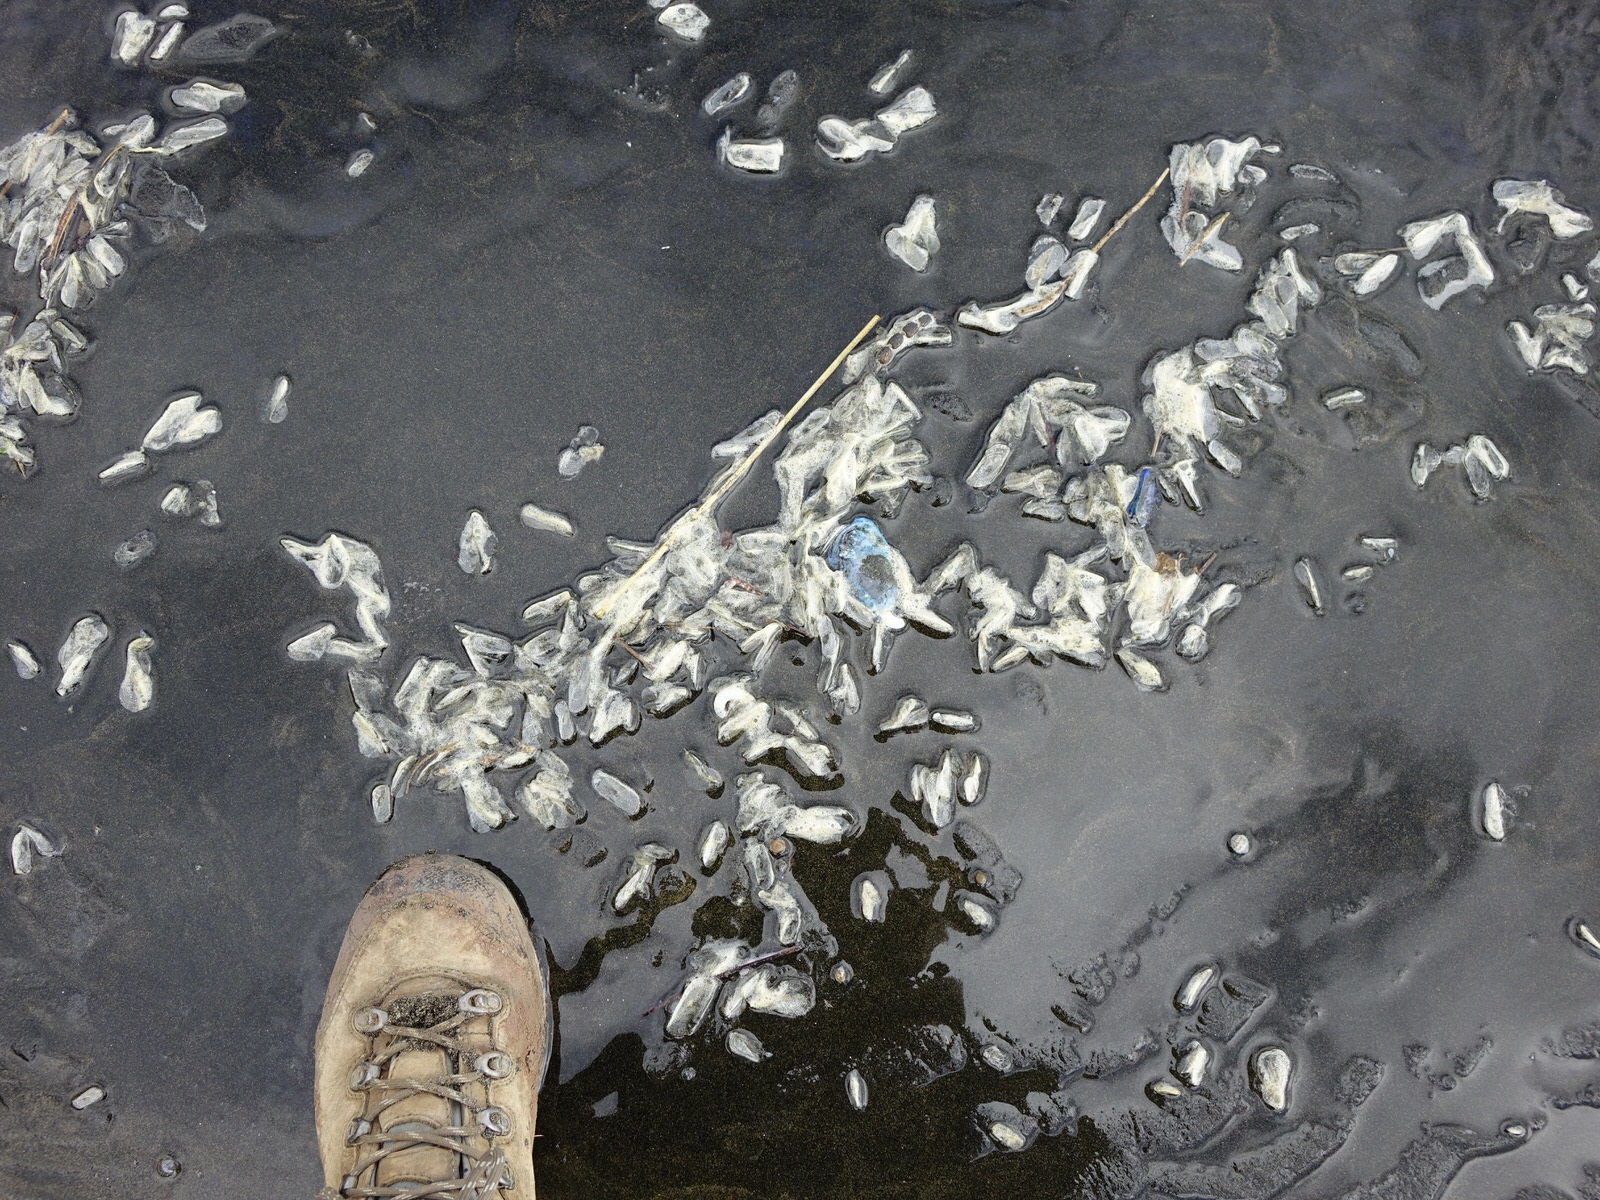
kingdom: Animalia
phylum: Cnidaria
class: Hydrozoa
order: Siphonophorae
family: Physaliidae
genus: Physalia
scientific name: Physalia physalis
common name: Portuguese man-of-war
